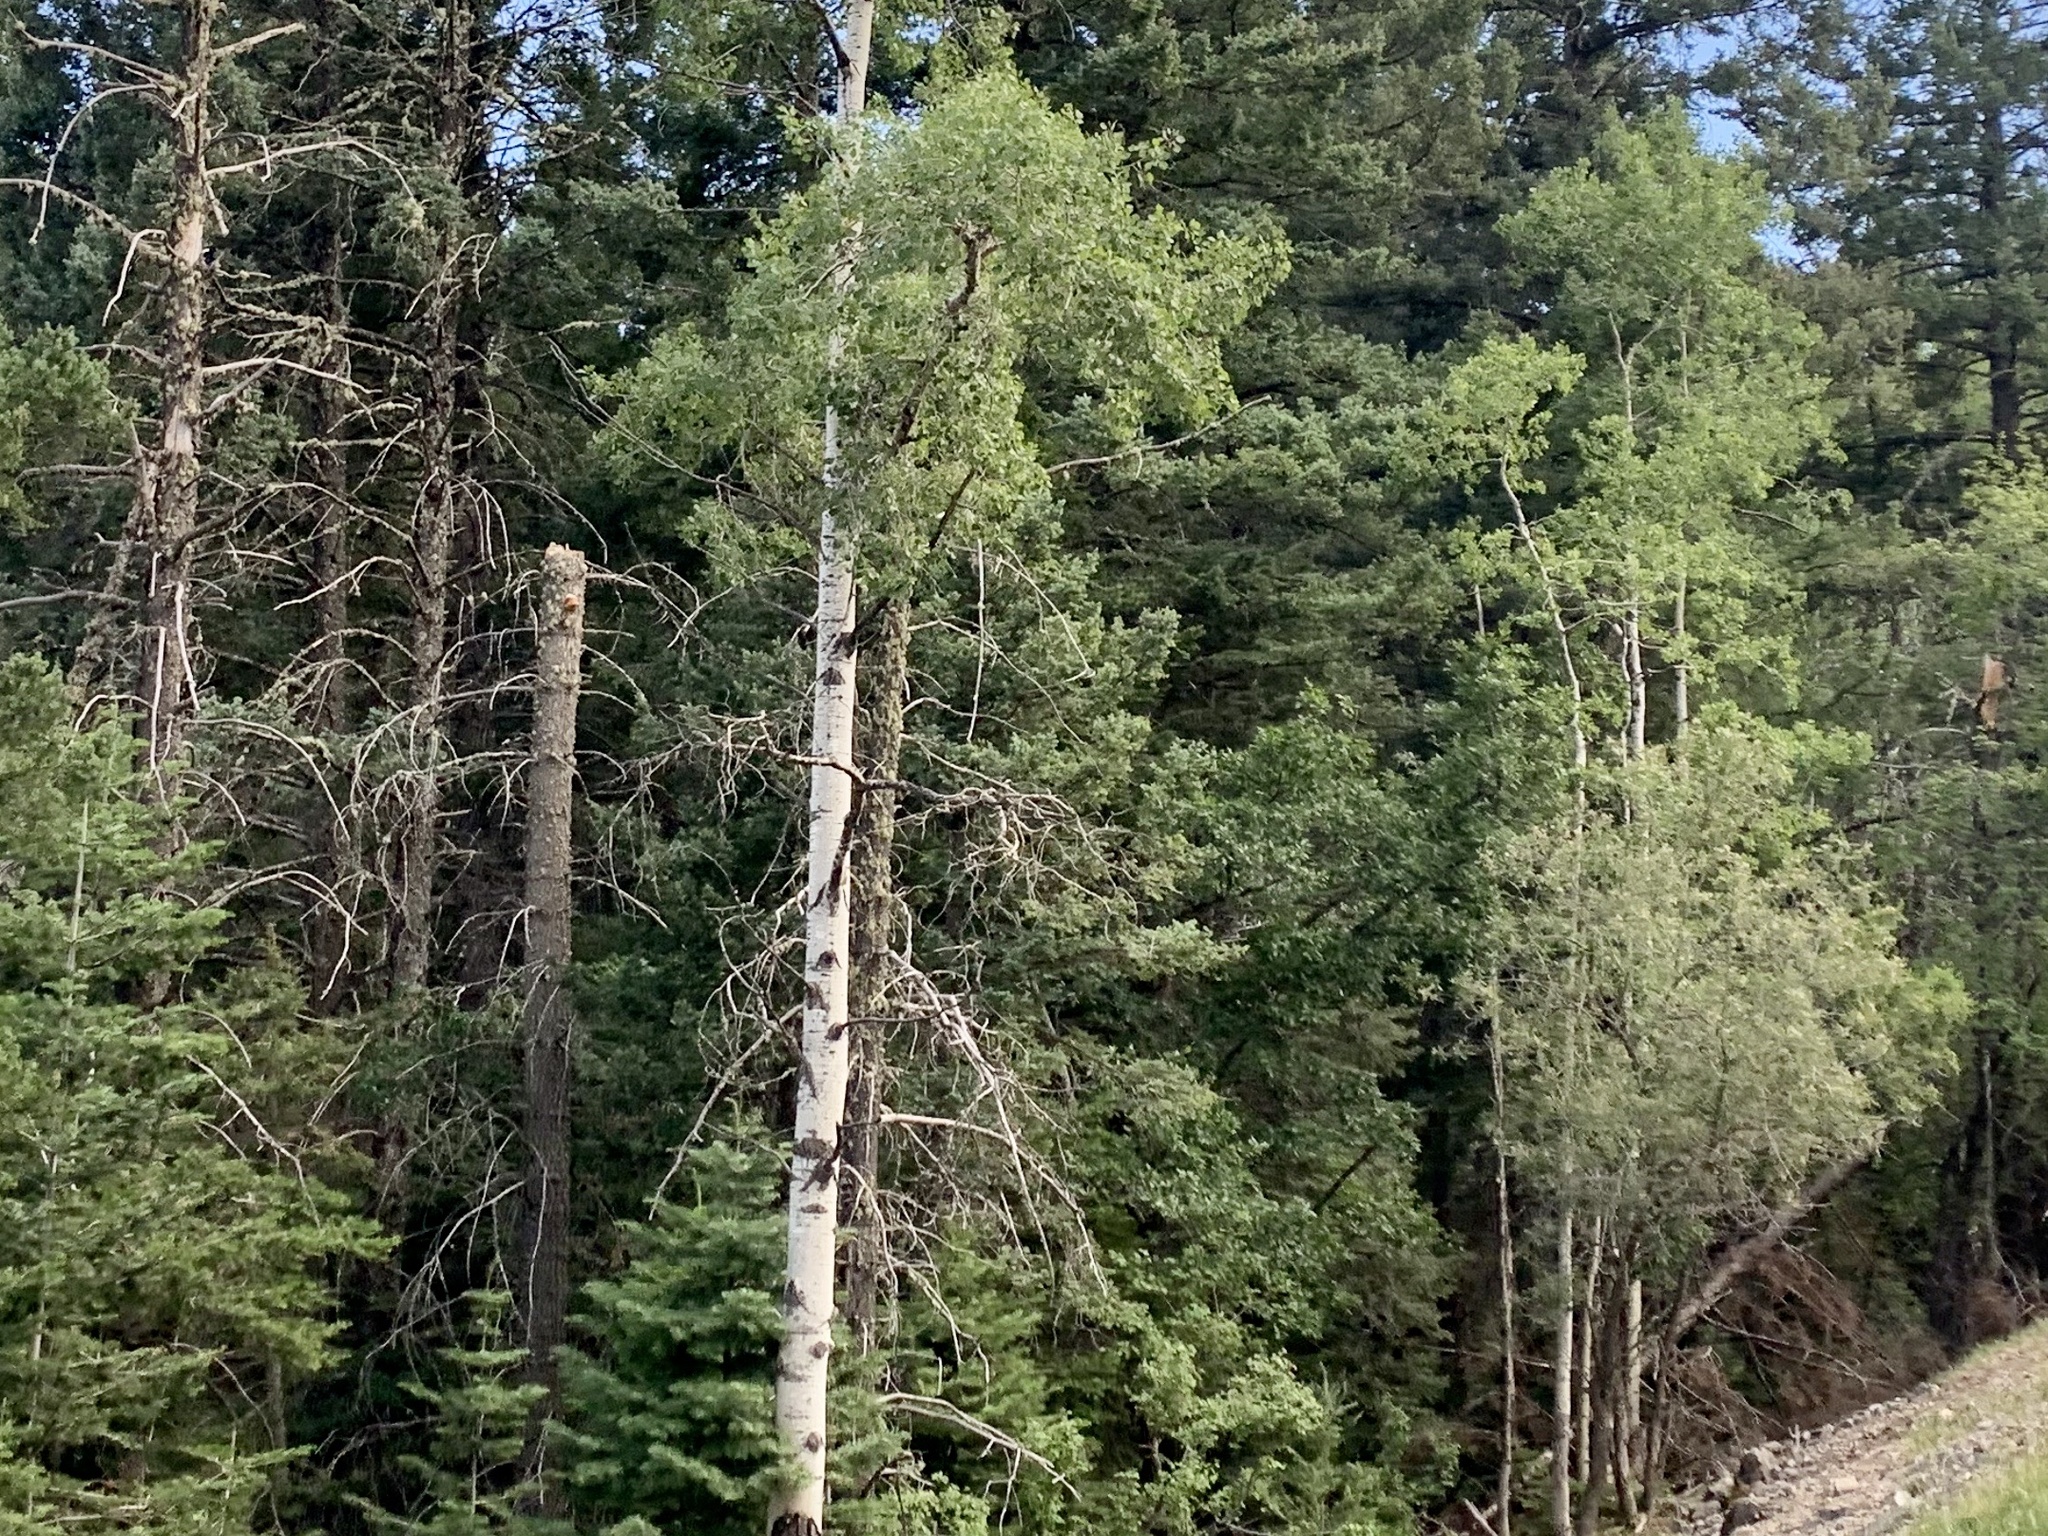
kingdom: Plantae
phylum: Tracheophyta
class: Magnoliopsida
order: Malpighiales
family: Salicaceae
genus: Populus
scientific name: Populus tremuloides
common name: Quaking aspen
